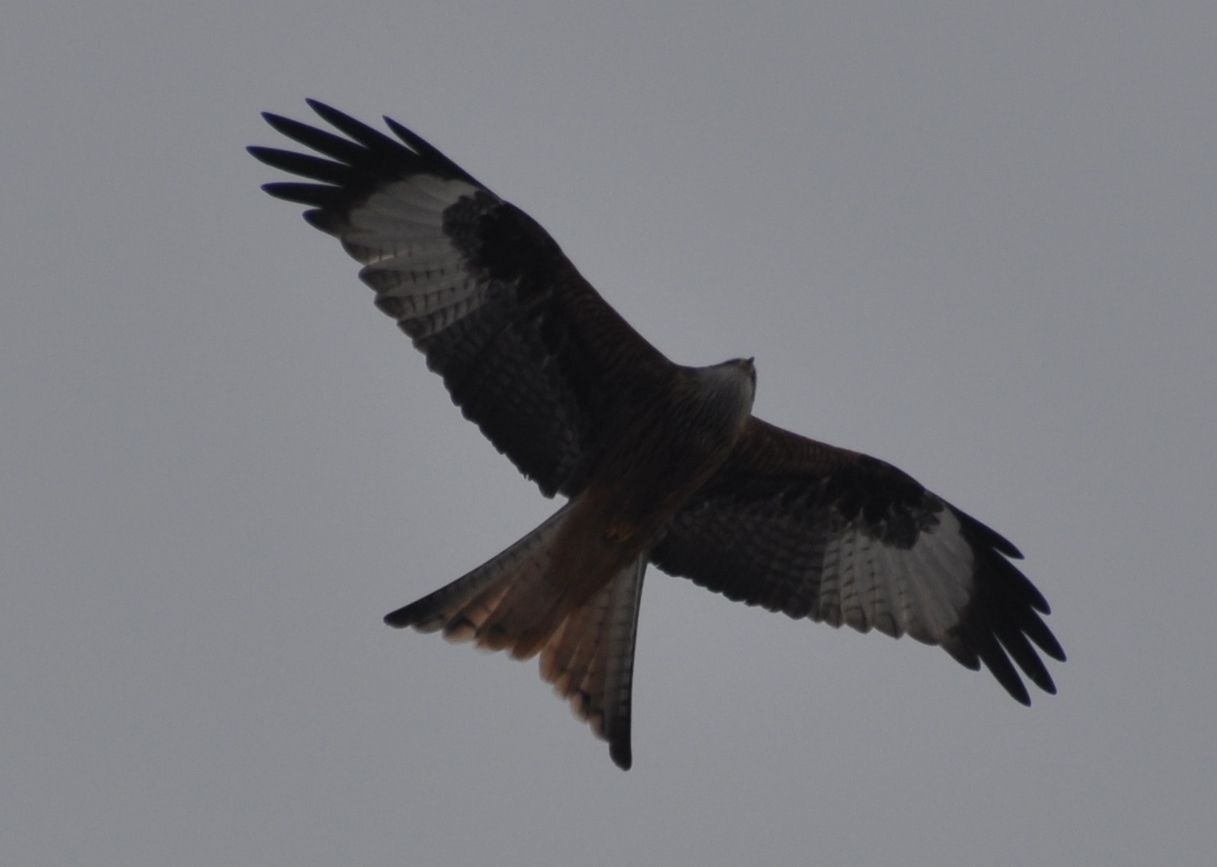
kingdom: Animalia
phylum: Chordata
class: Aves
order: Accipitriformes
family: Accipitridae
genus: Milvus
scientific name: Milvus milvus
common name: Red kite
